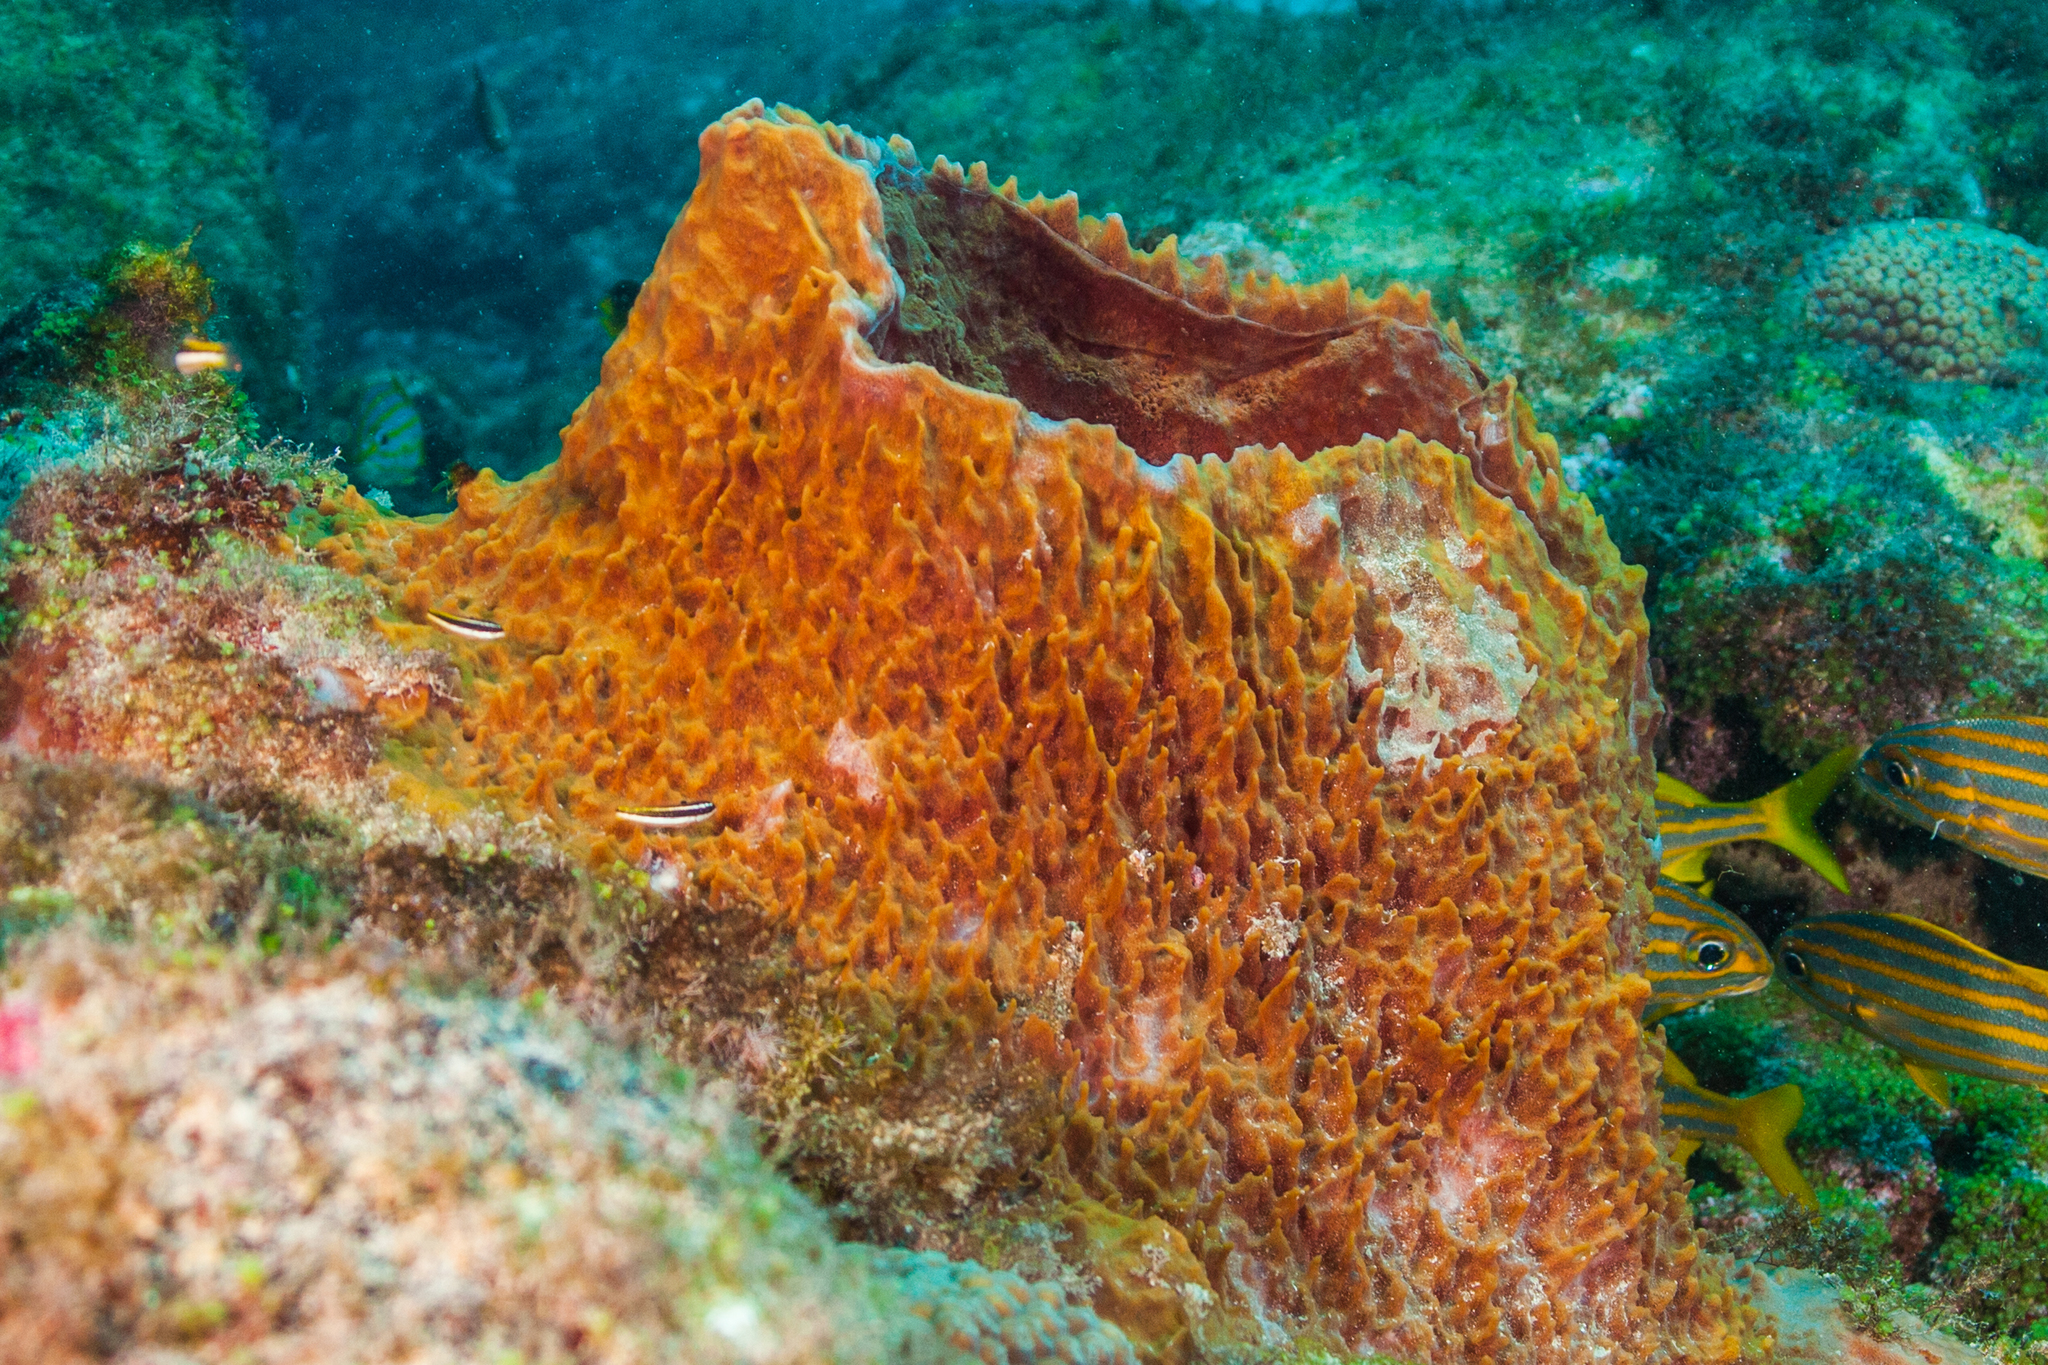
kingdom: Animalia
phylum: Porifera
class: Demospongiae
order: Haplosclerida
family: Petrosiidae
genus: Xestospongia
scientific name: Xestospongia muta
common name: Giant barrel sponge
